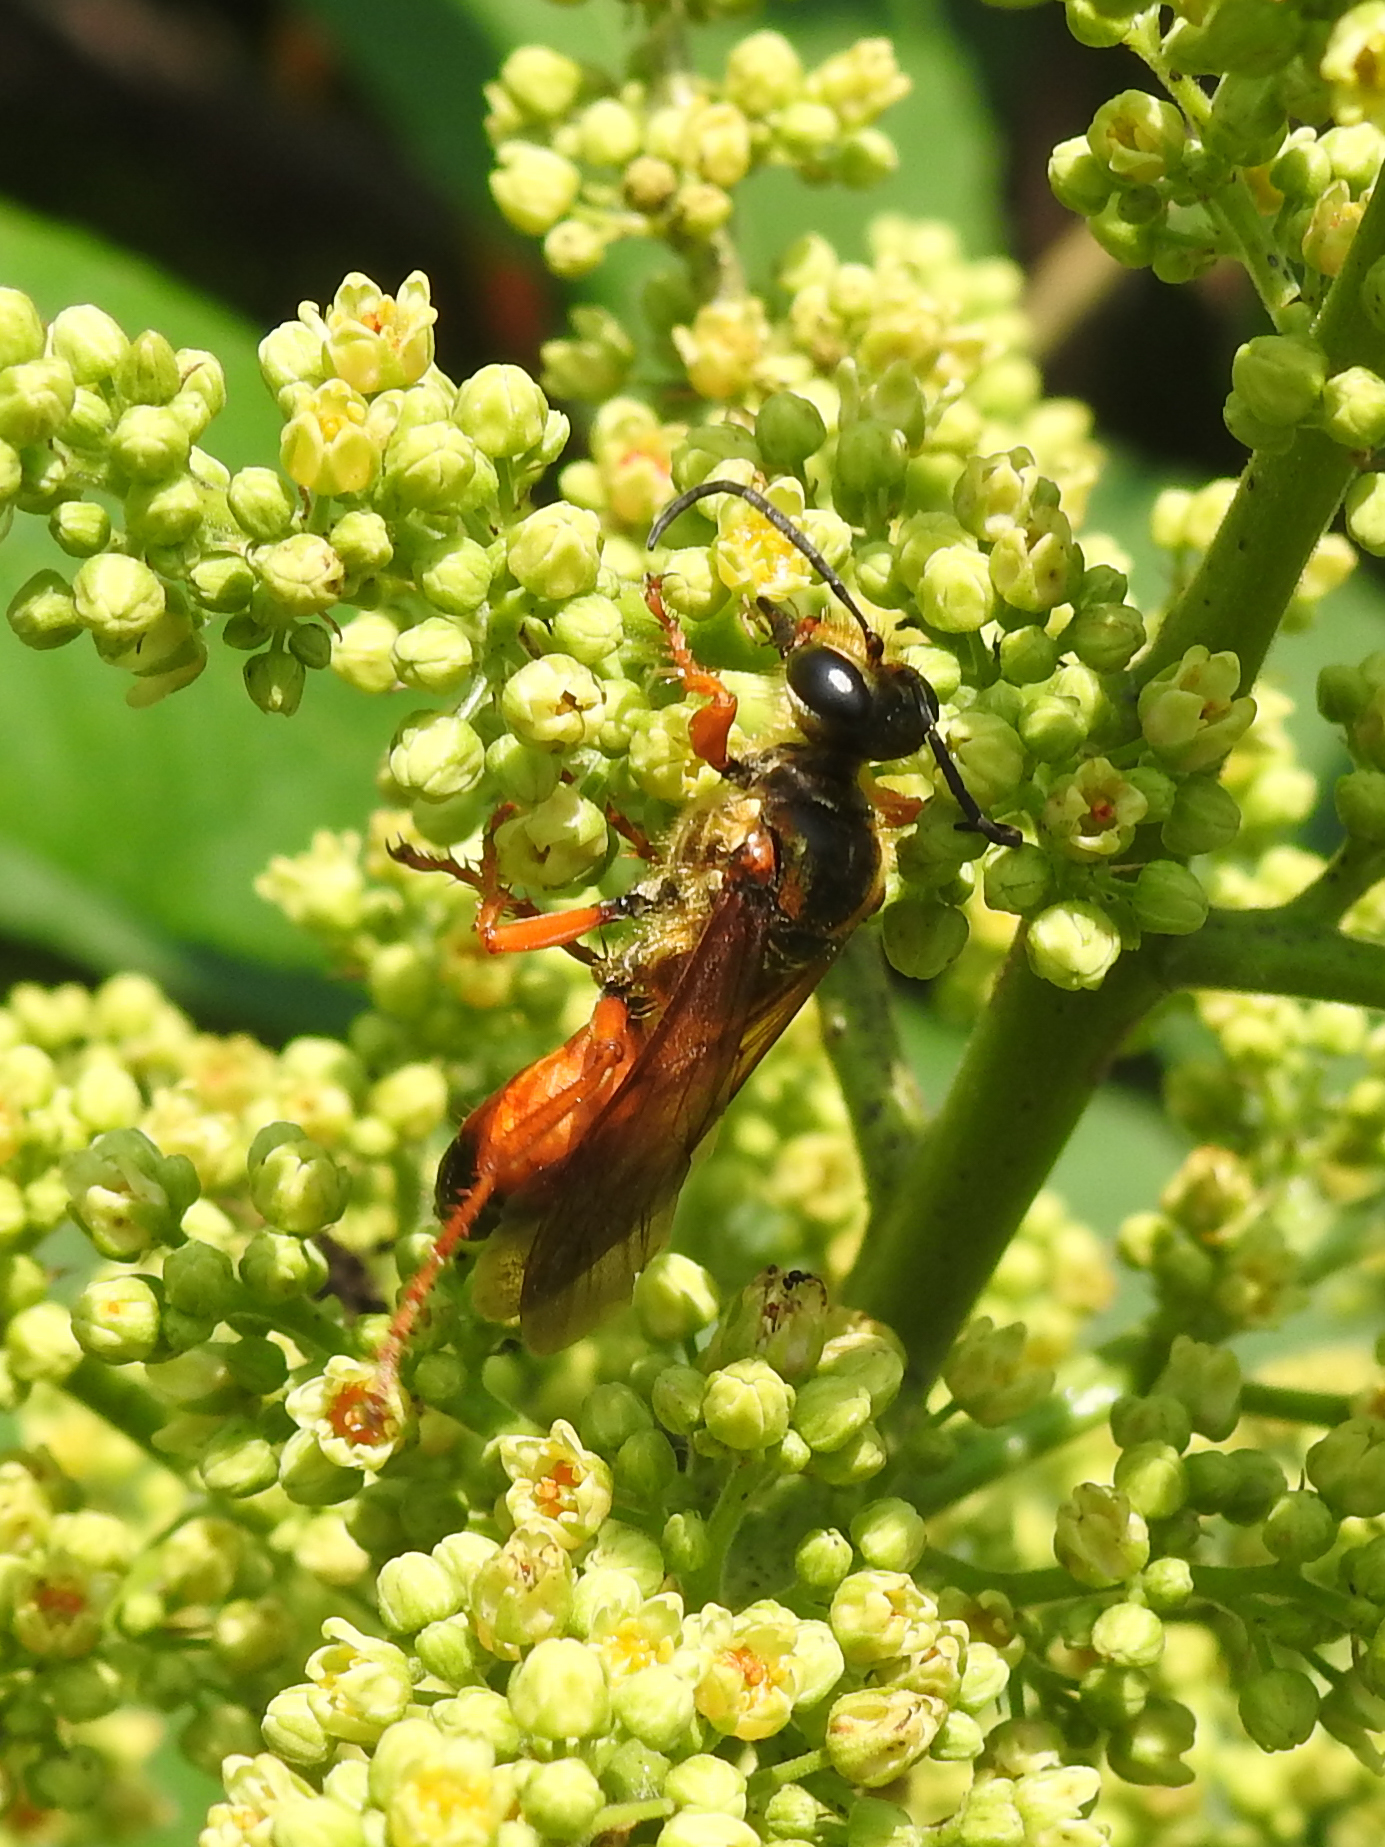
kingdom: Animalia
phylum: Arthropoda
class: Insecta
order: Hymenoptera
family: Sphecidae
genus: Sphex
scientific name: Sphex ichneumoneus
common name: Great golden digger wasp
